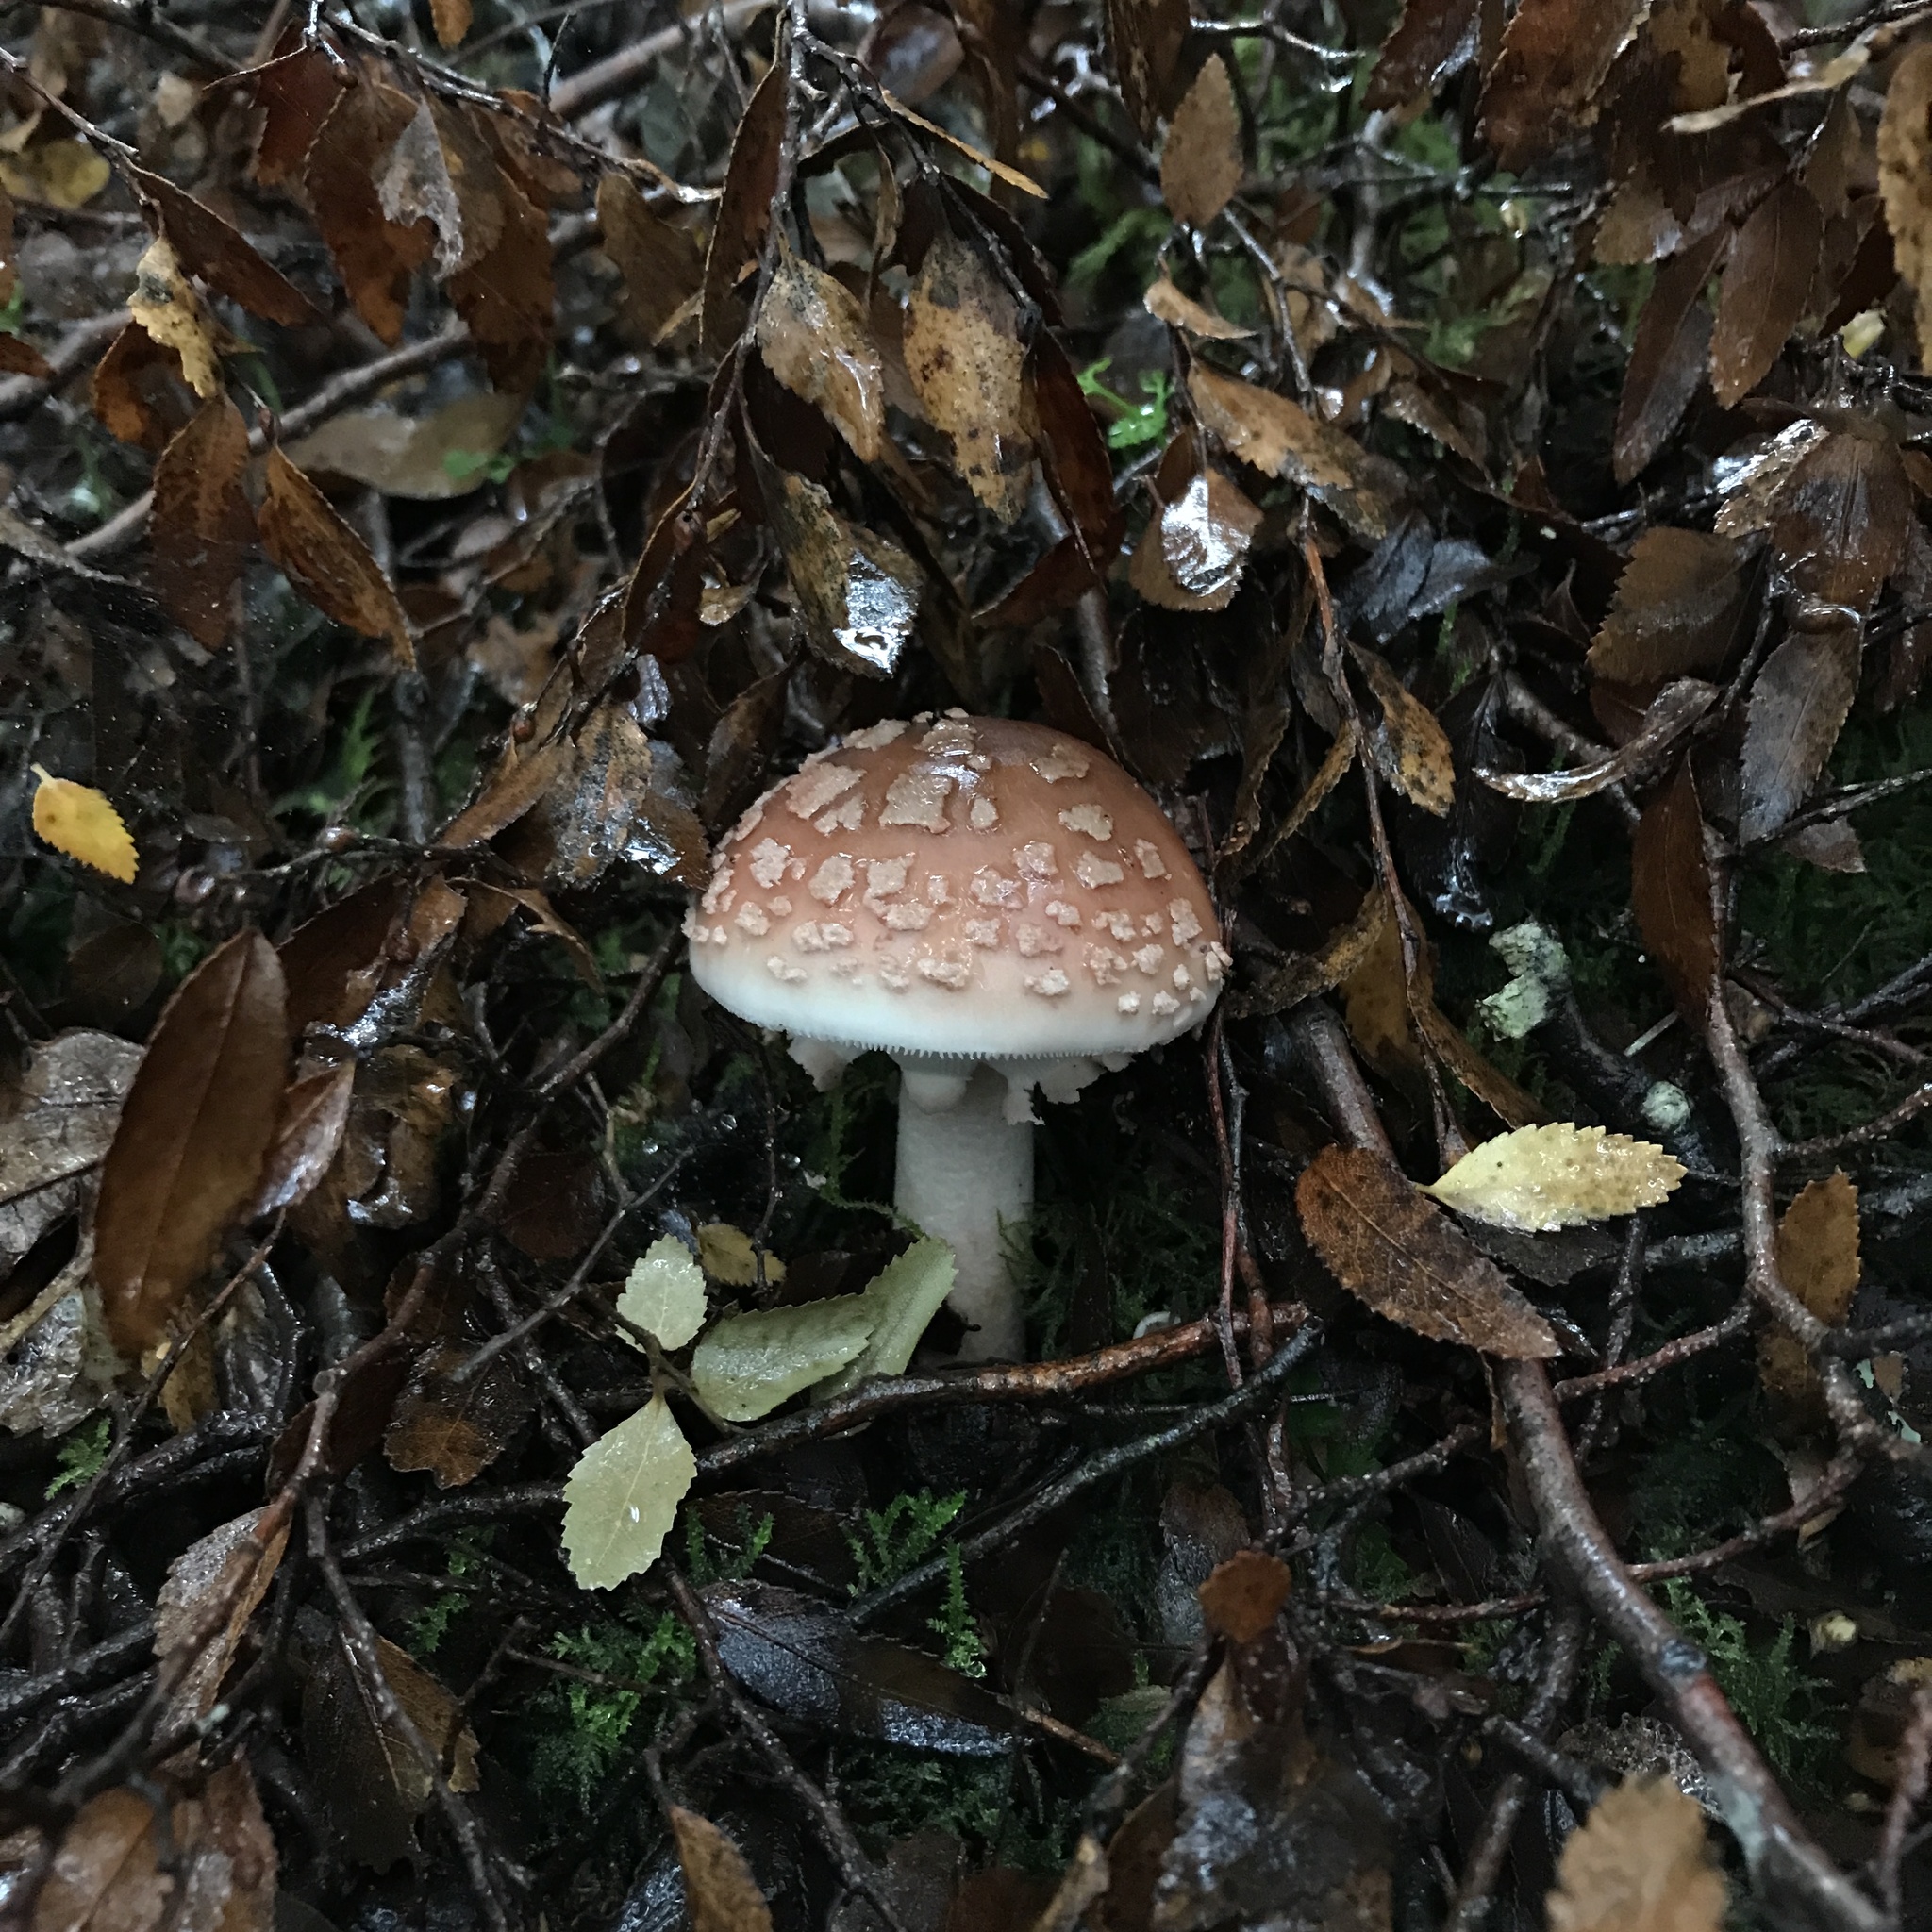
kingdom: Fungi
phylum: Basidiomycota
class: Agaricomycetes
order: Agaricales
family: Amanitaceae
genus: Amanita
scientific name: Amanita rubescens
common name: Blusher
